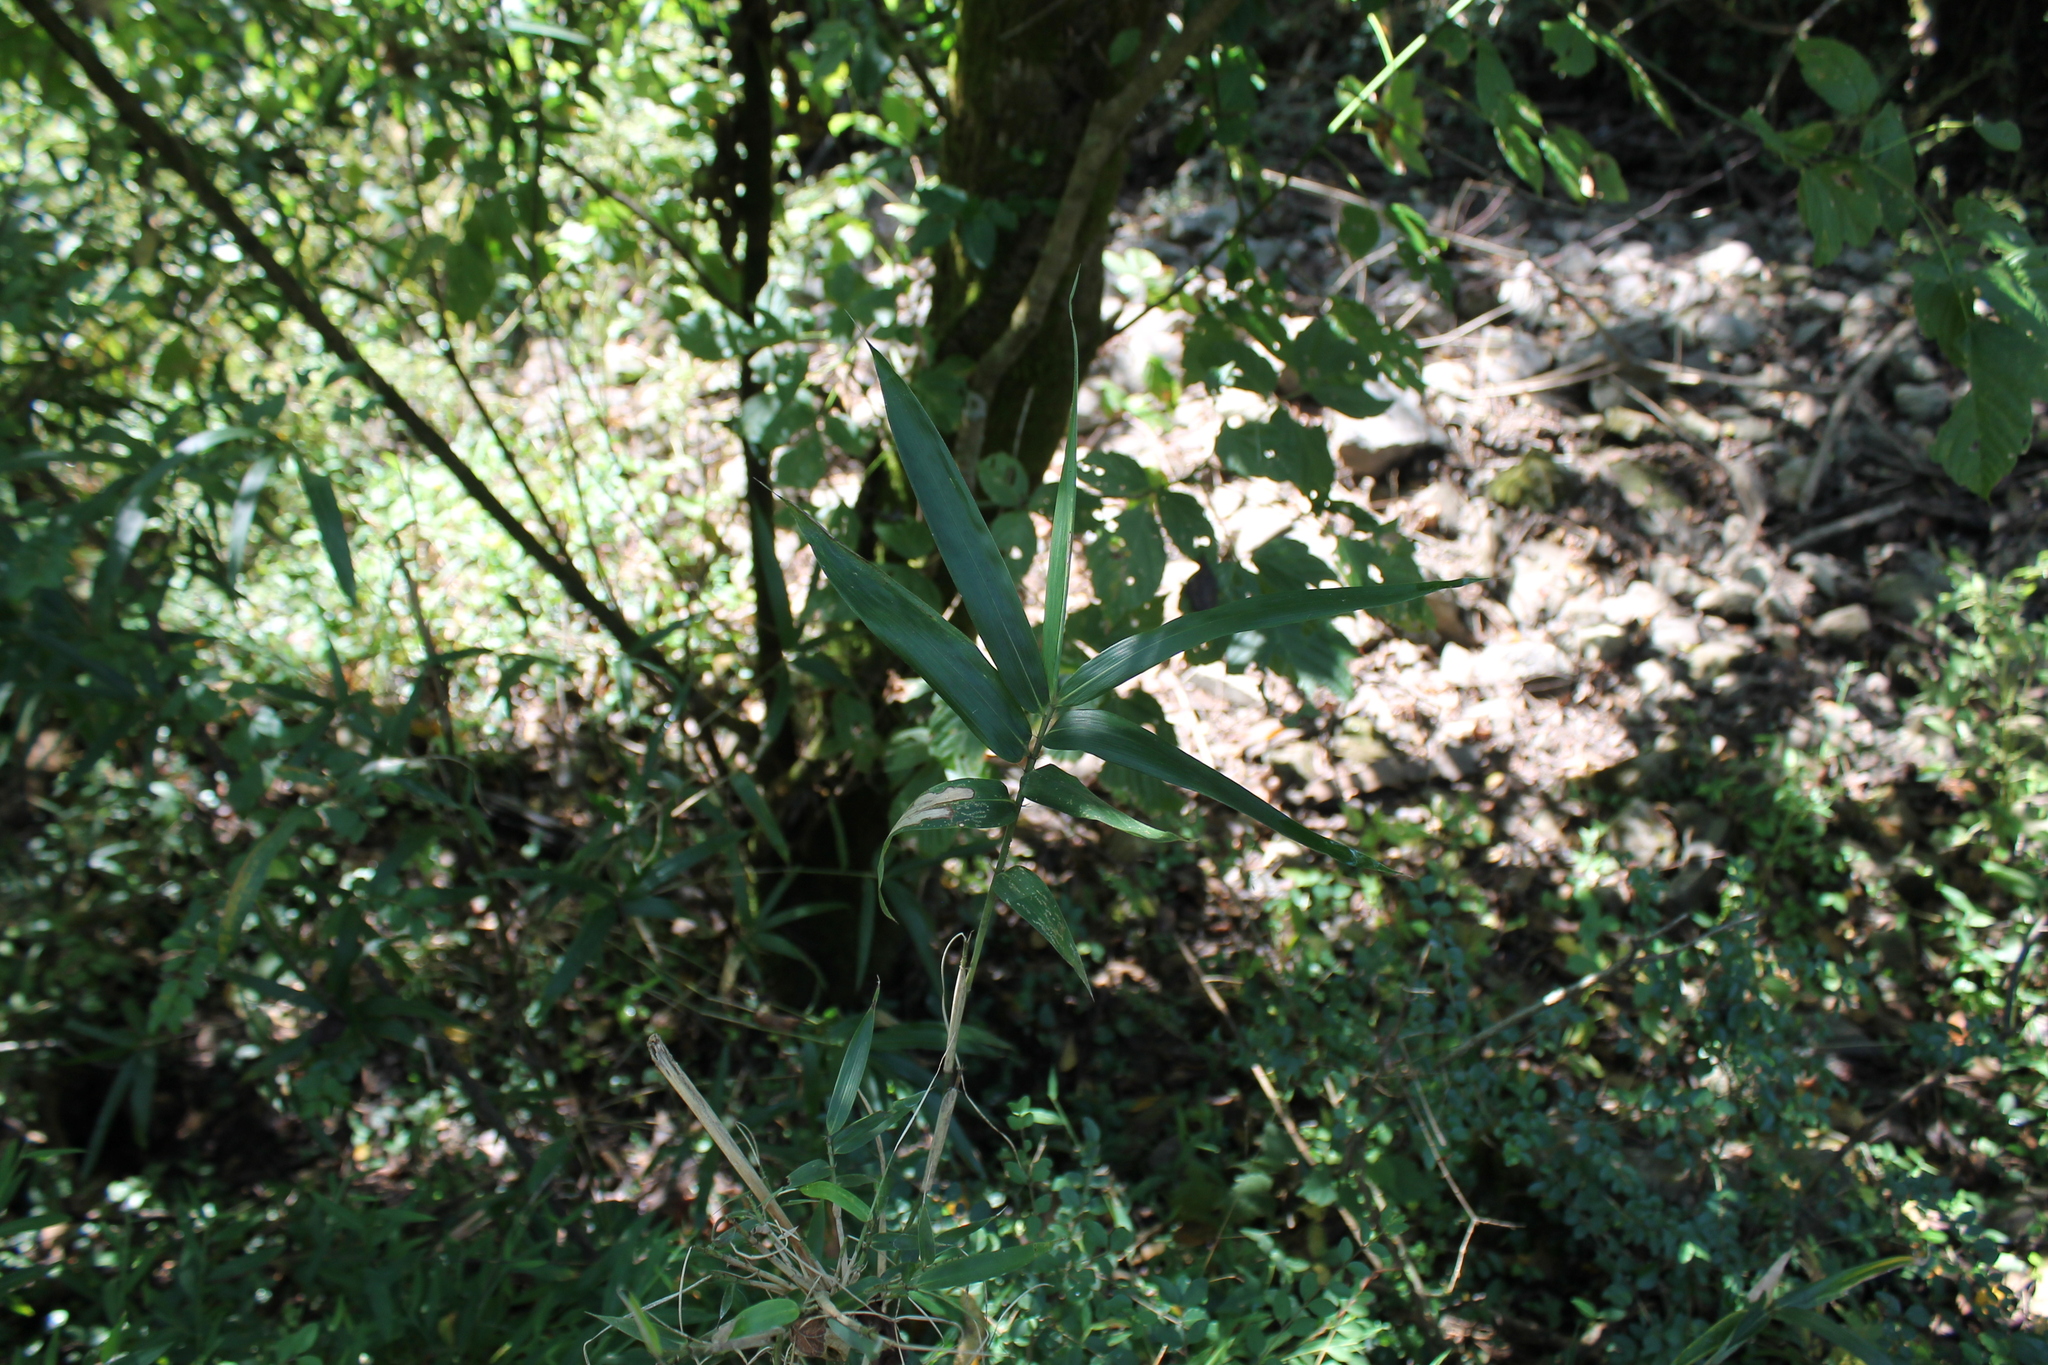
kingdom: Plantae
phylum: Tracheophyta
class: Liliopsida
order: Poales
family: Poaceae
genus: Arundinaria
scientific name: Arundinaria gigantea
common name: Giant cane
